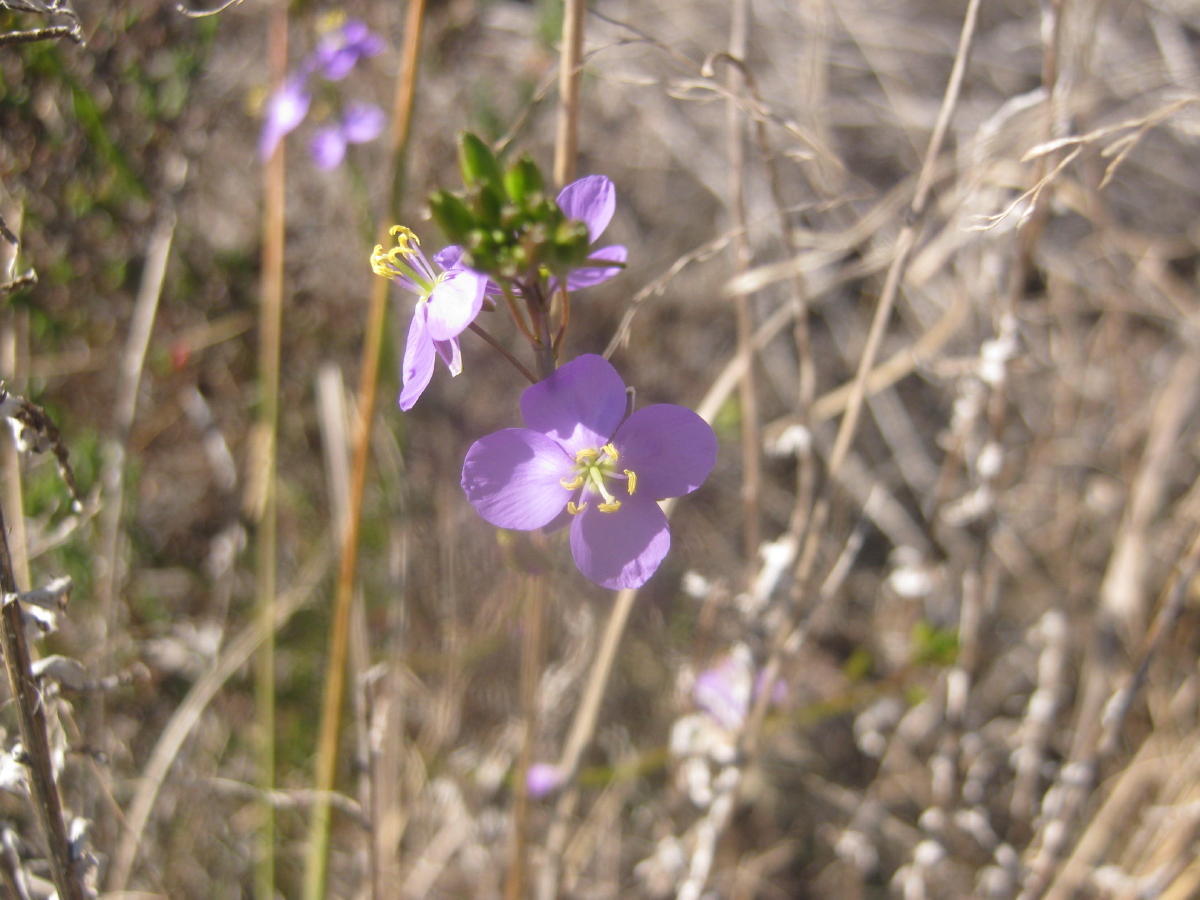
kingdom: Plantae
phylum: Tracheophyta
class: Magnoliopsida
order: Brassicales
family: Brassicaceae
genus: Heliophila
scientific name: Heliophila subulata
